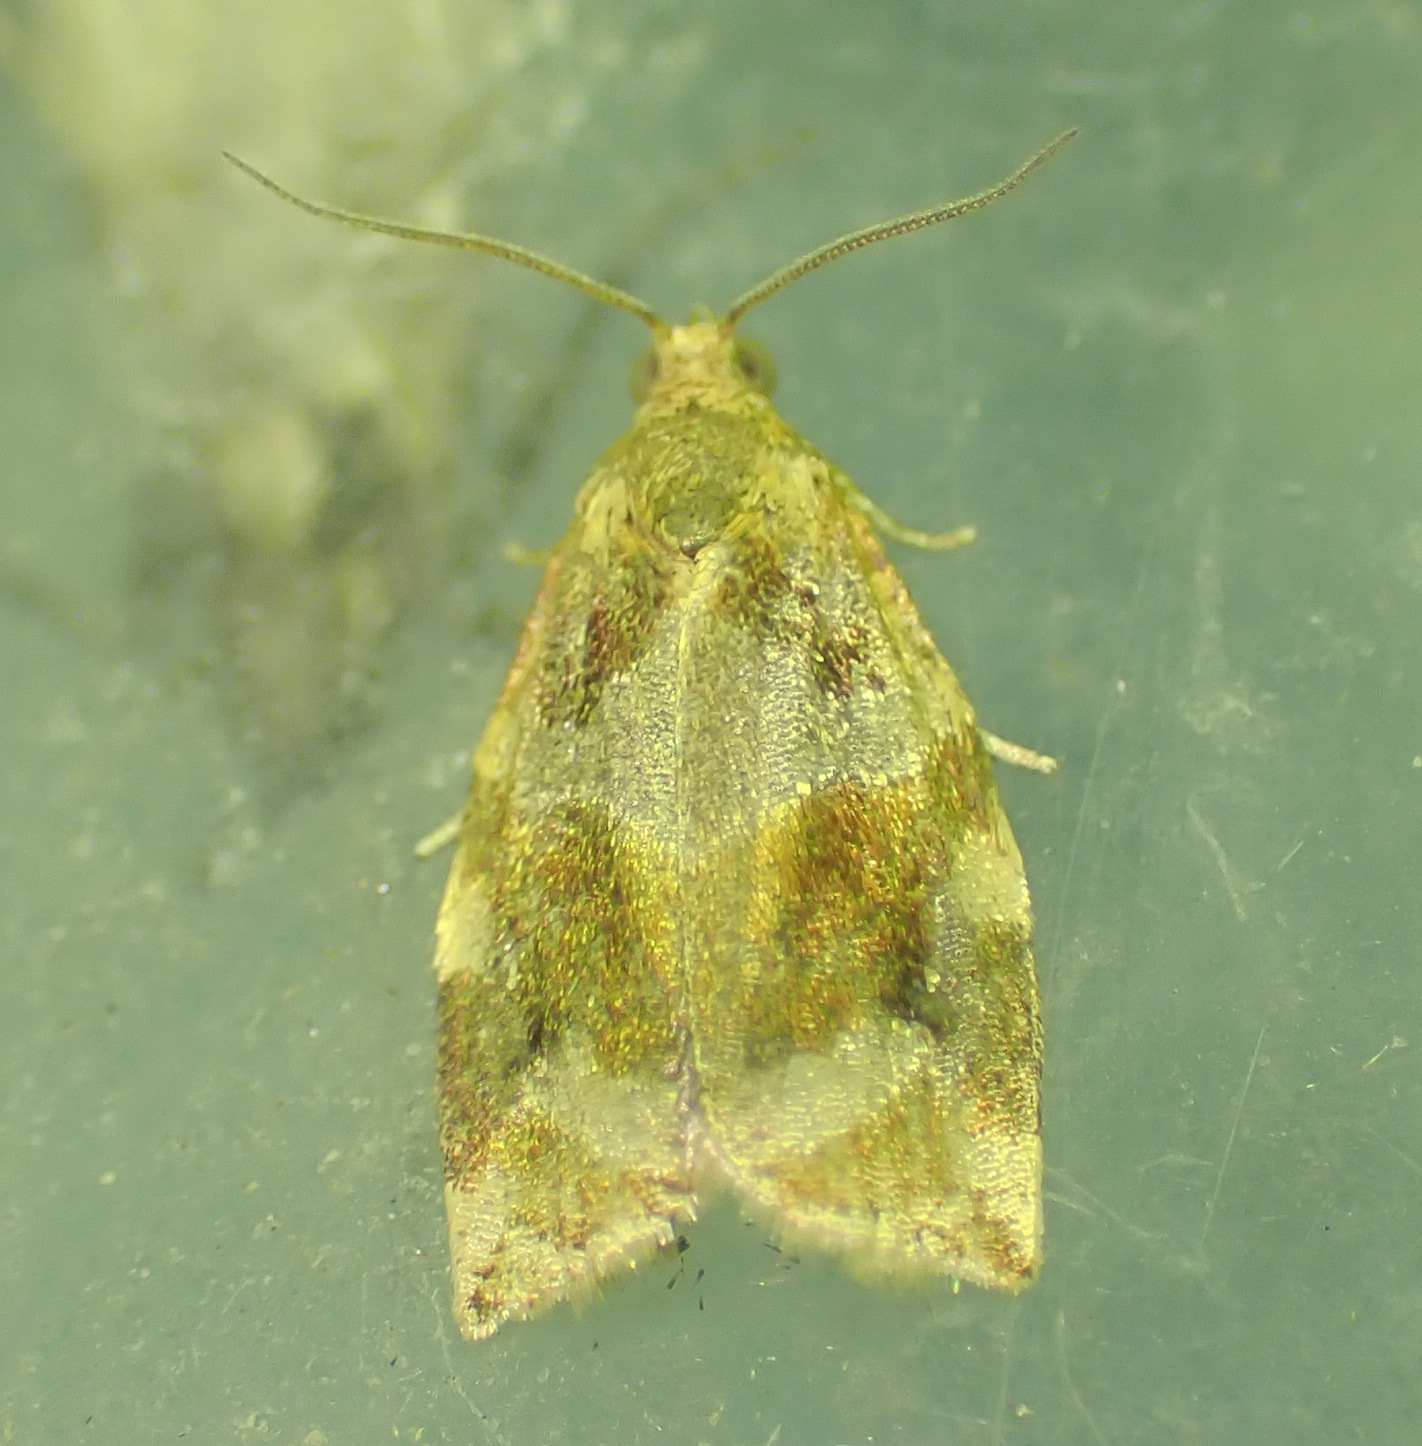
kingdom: Animalia
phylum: Arthropoda
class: Insecta
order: Lepidoptera
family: Tortricidae
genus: Archips
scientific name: Archips xylosteana
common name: Variegated golden tortrix
